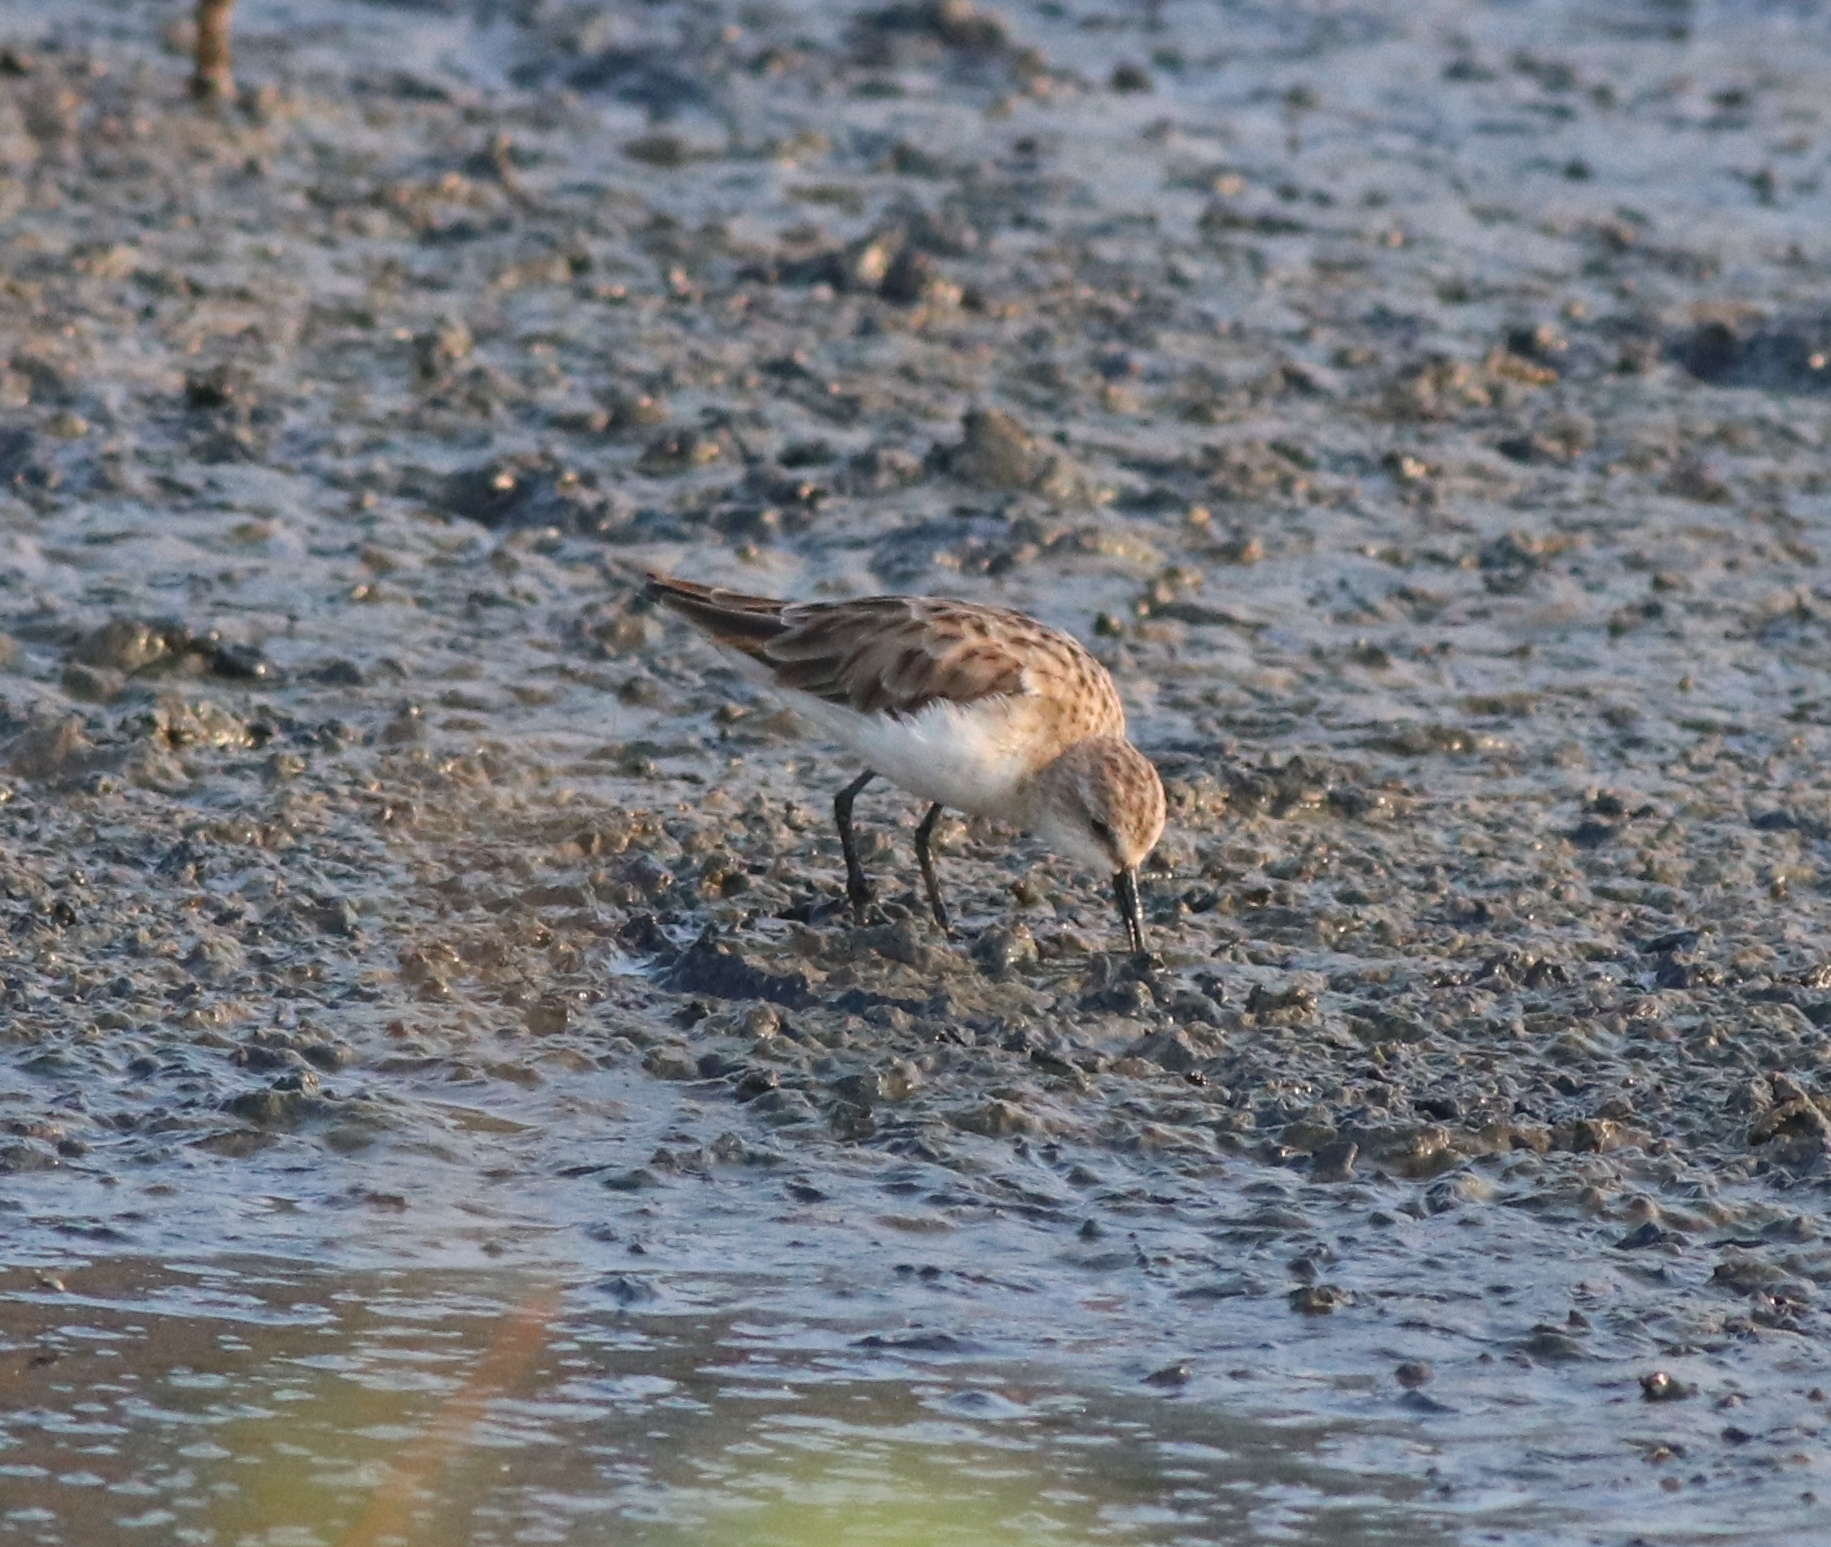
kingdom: Animalia
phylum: Chordata
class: Aves
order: Charadriiformes
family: Scolopacidae
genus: Calidris
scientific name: Calidris minuta
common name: Little stint
